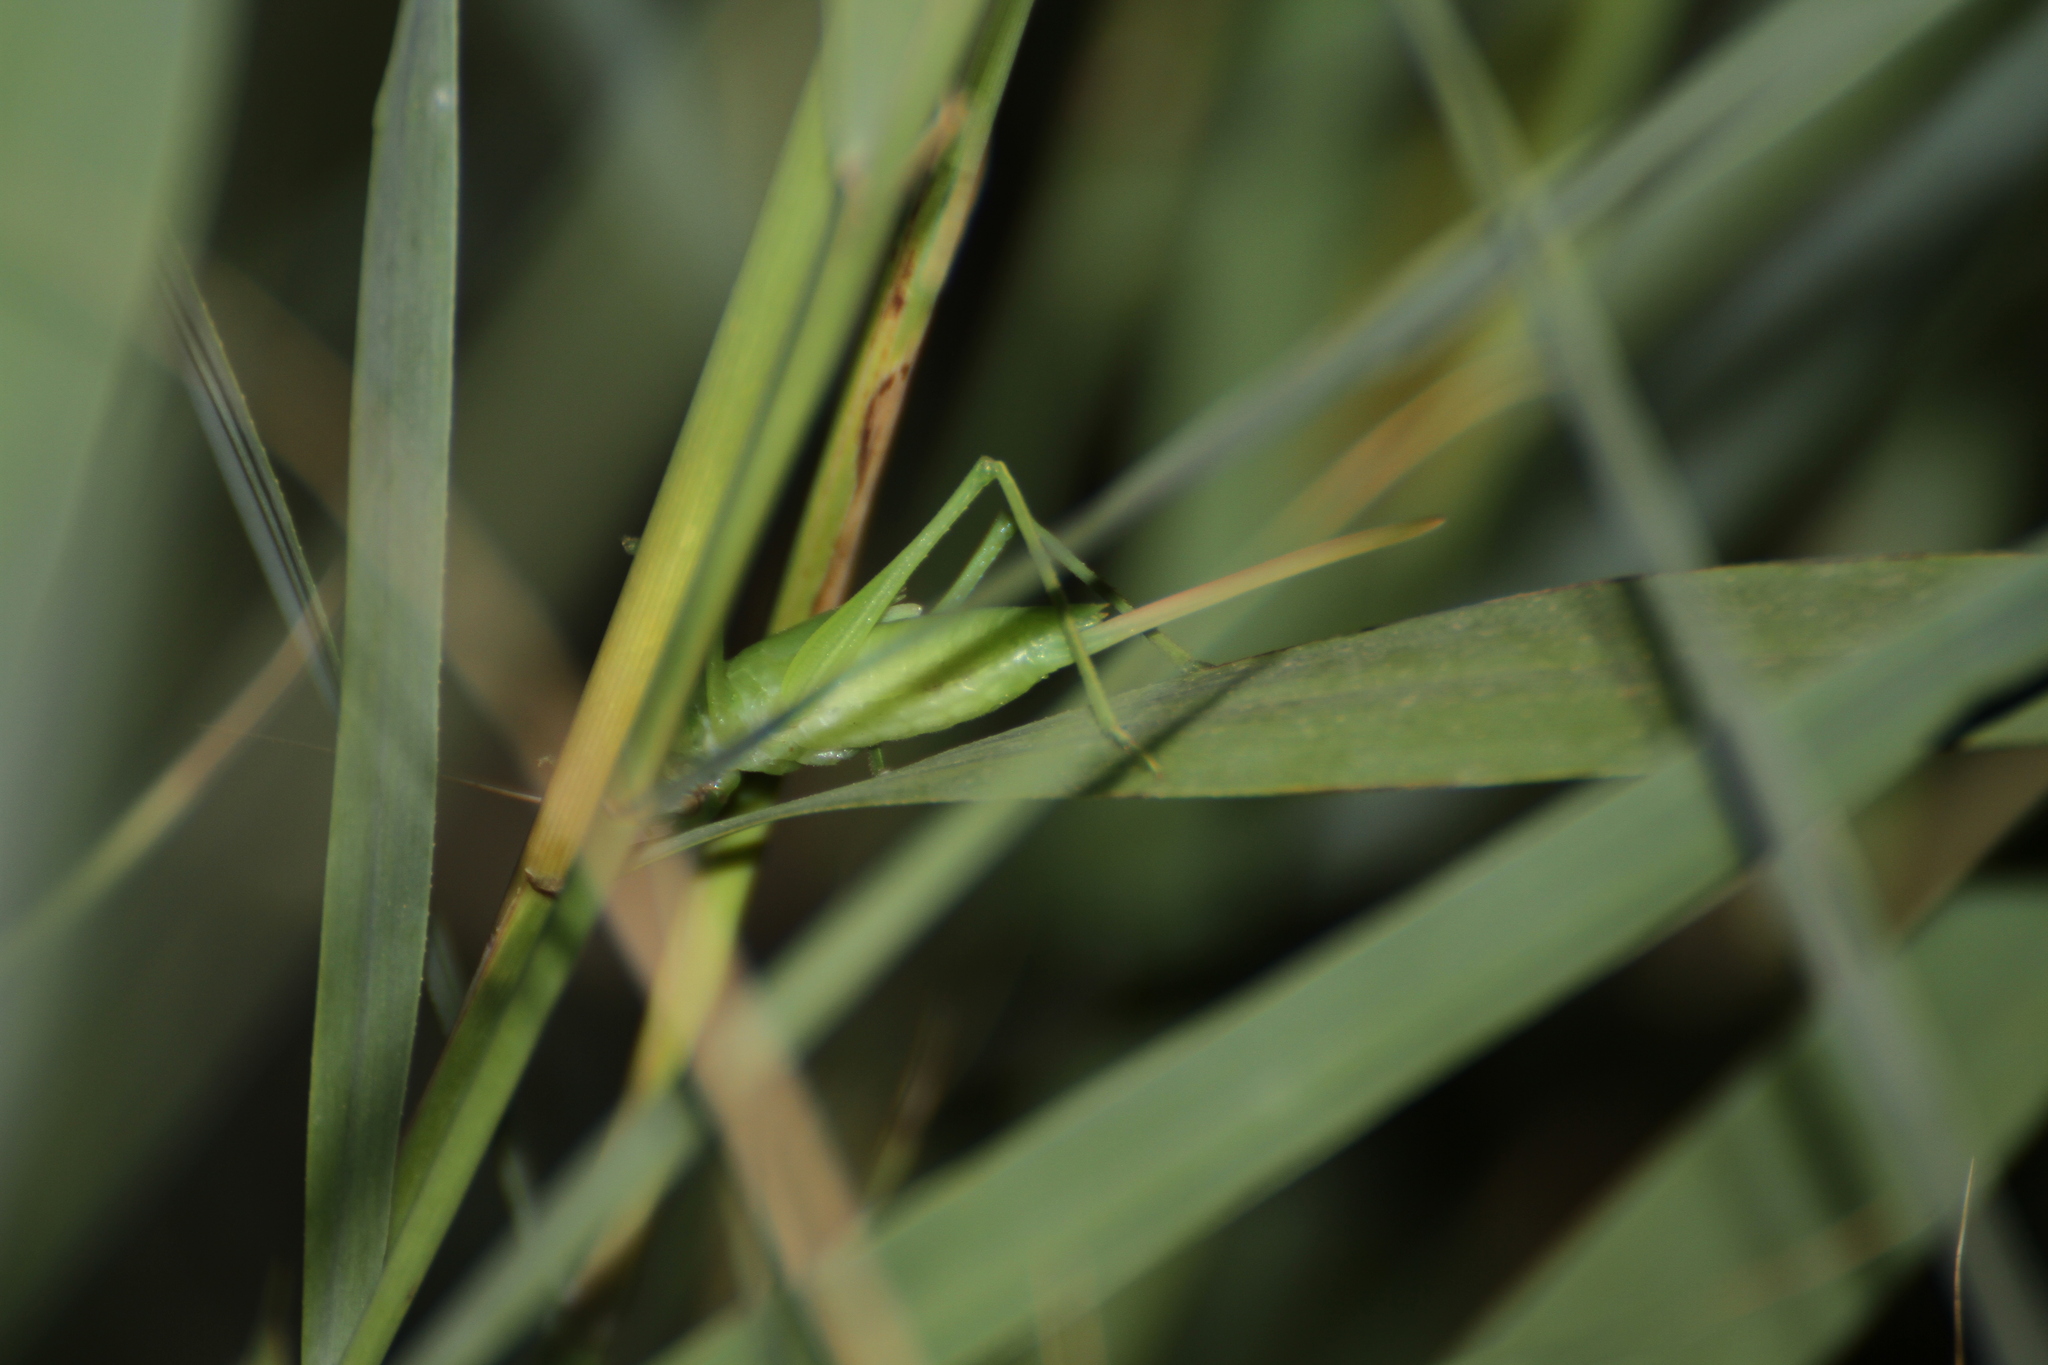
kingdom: Animalia
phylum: Arthropoda
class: Insecta
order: Orthoptera
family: Tettigoniidae
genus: Ruspolia
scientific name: Ruspolia nitidula
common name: Large conehead
